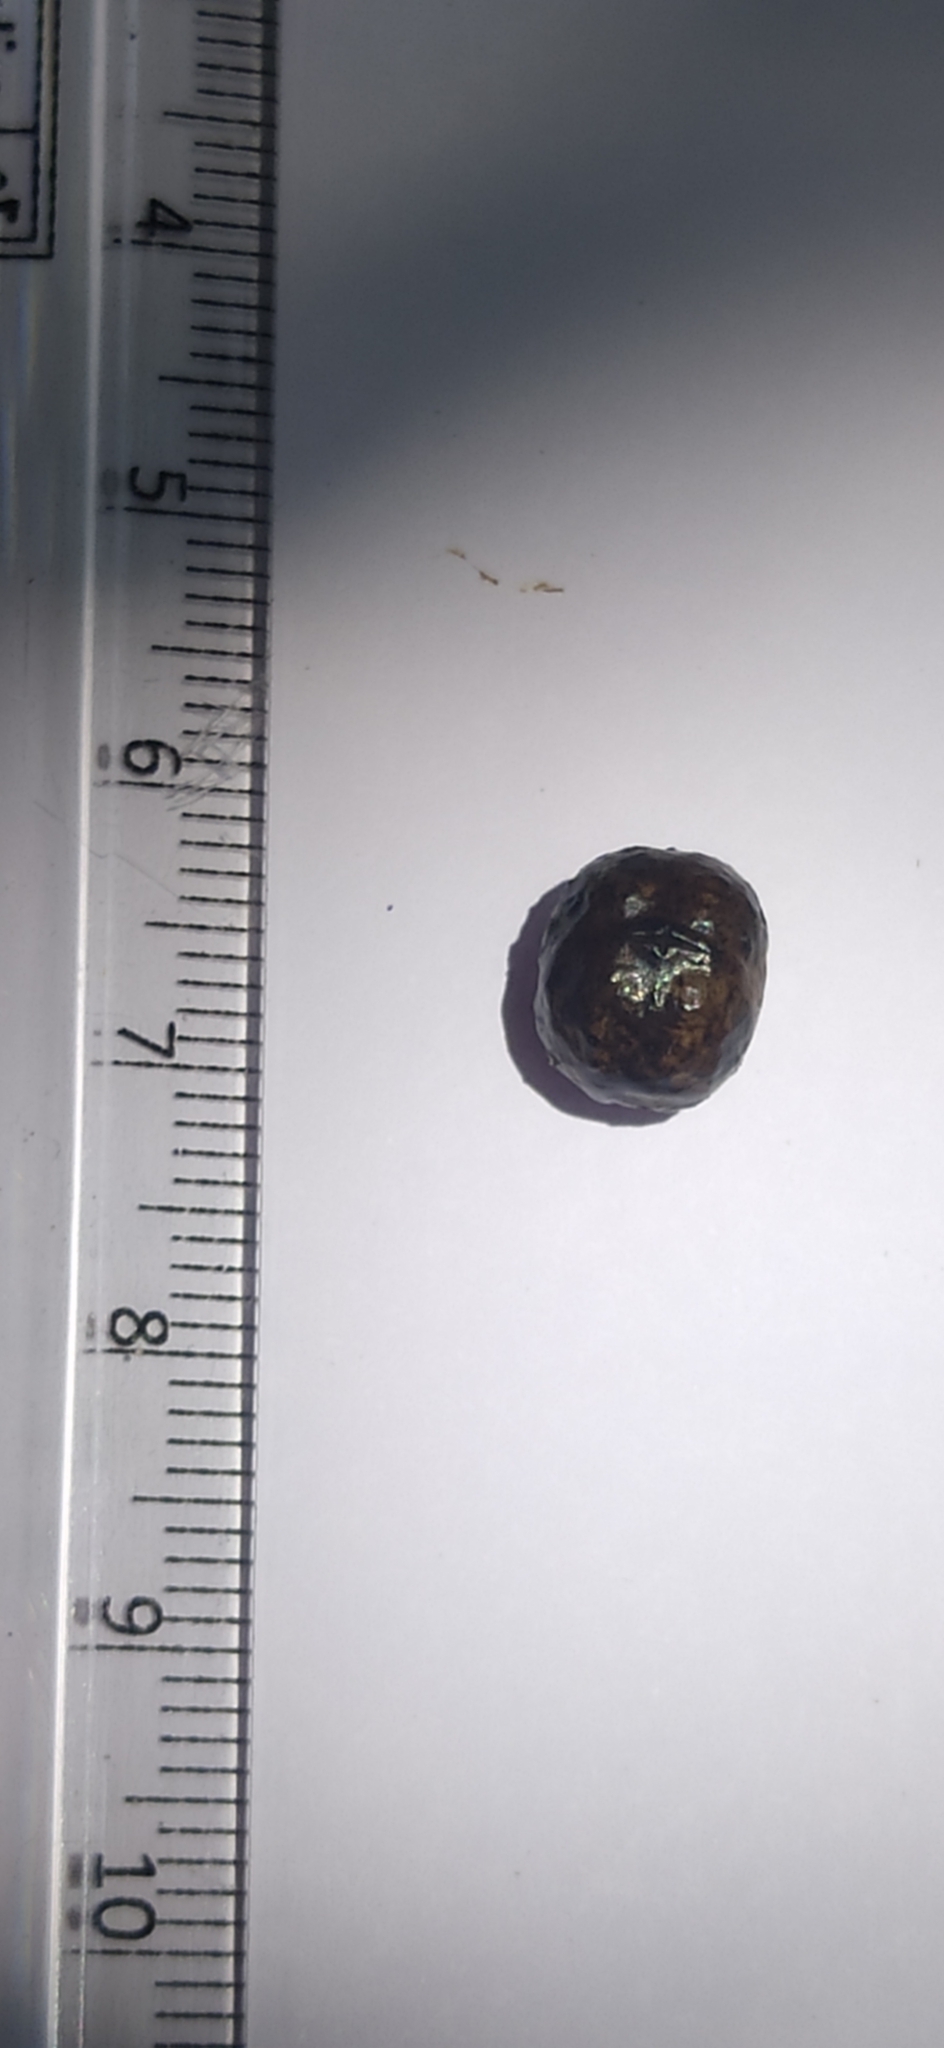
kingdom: Plantae
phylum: Tracheophyta
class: Magnoliopsida
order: Lamiales
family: Lamiaceae
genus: Clerodendrum
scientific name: Clerodendrum infortunatum
